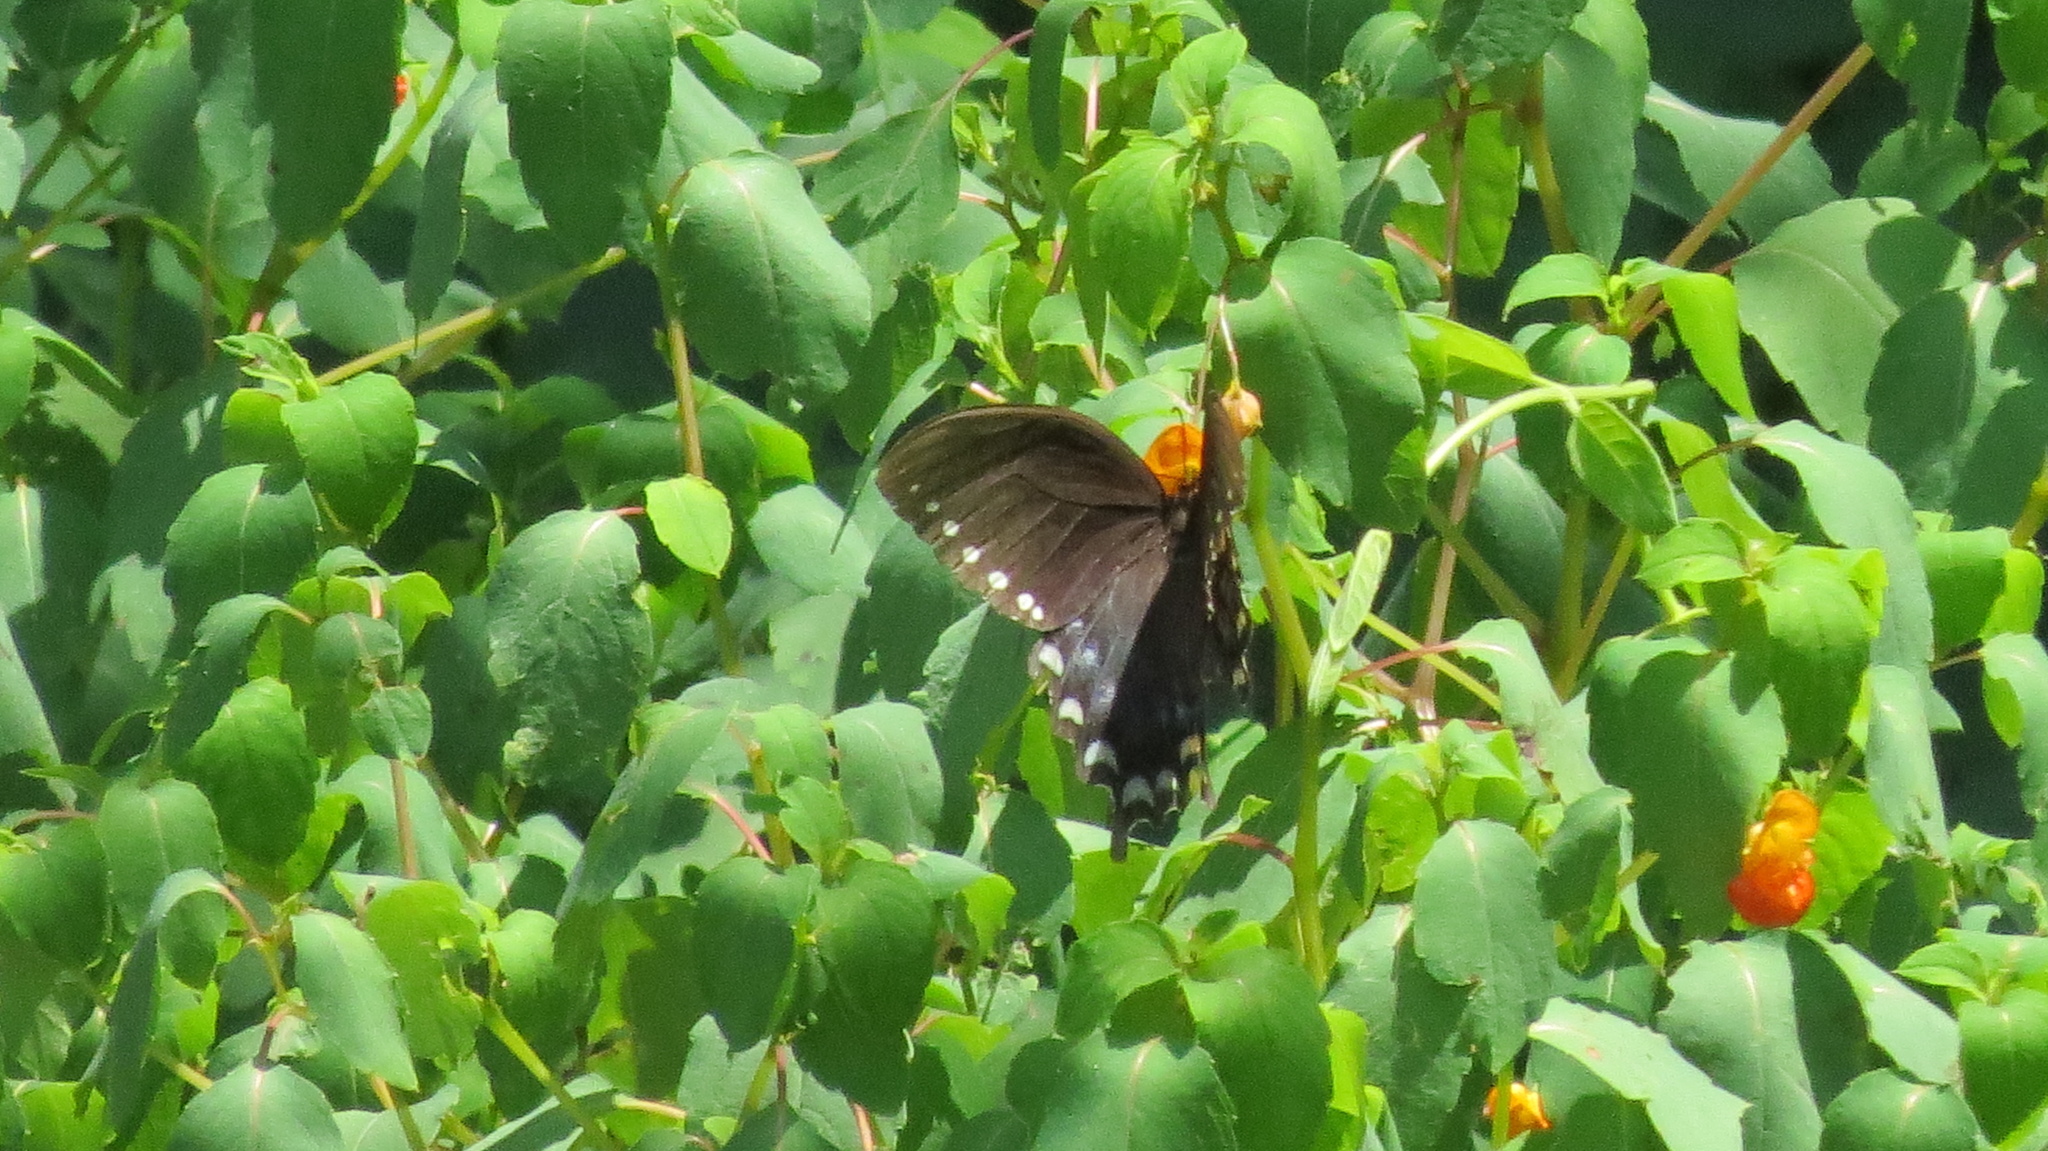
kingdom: Animalia
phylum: Arthropoda
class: Insecta
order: Lepidoptera
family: Papilionidae
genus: Papilio
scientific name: Papilio troilus
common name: Spicebush swallowtail
